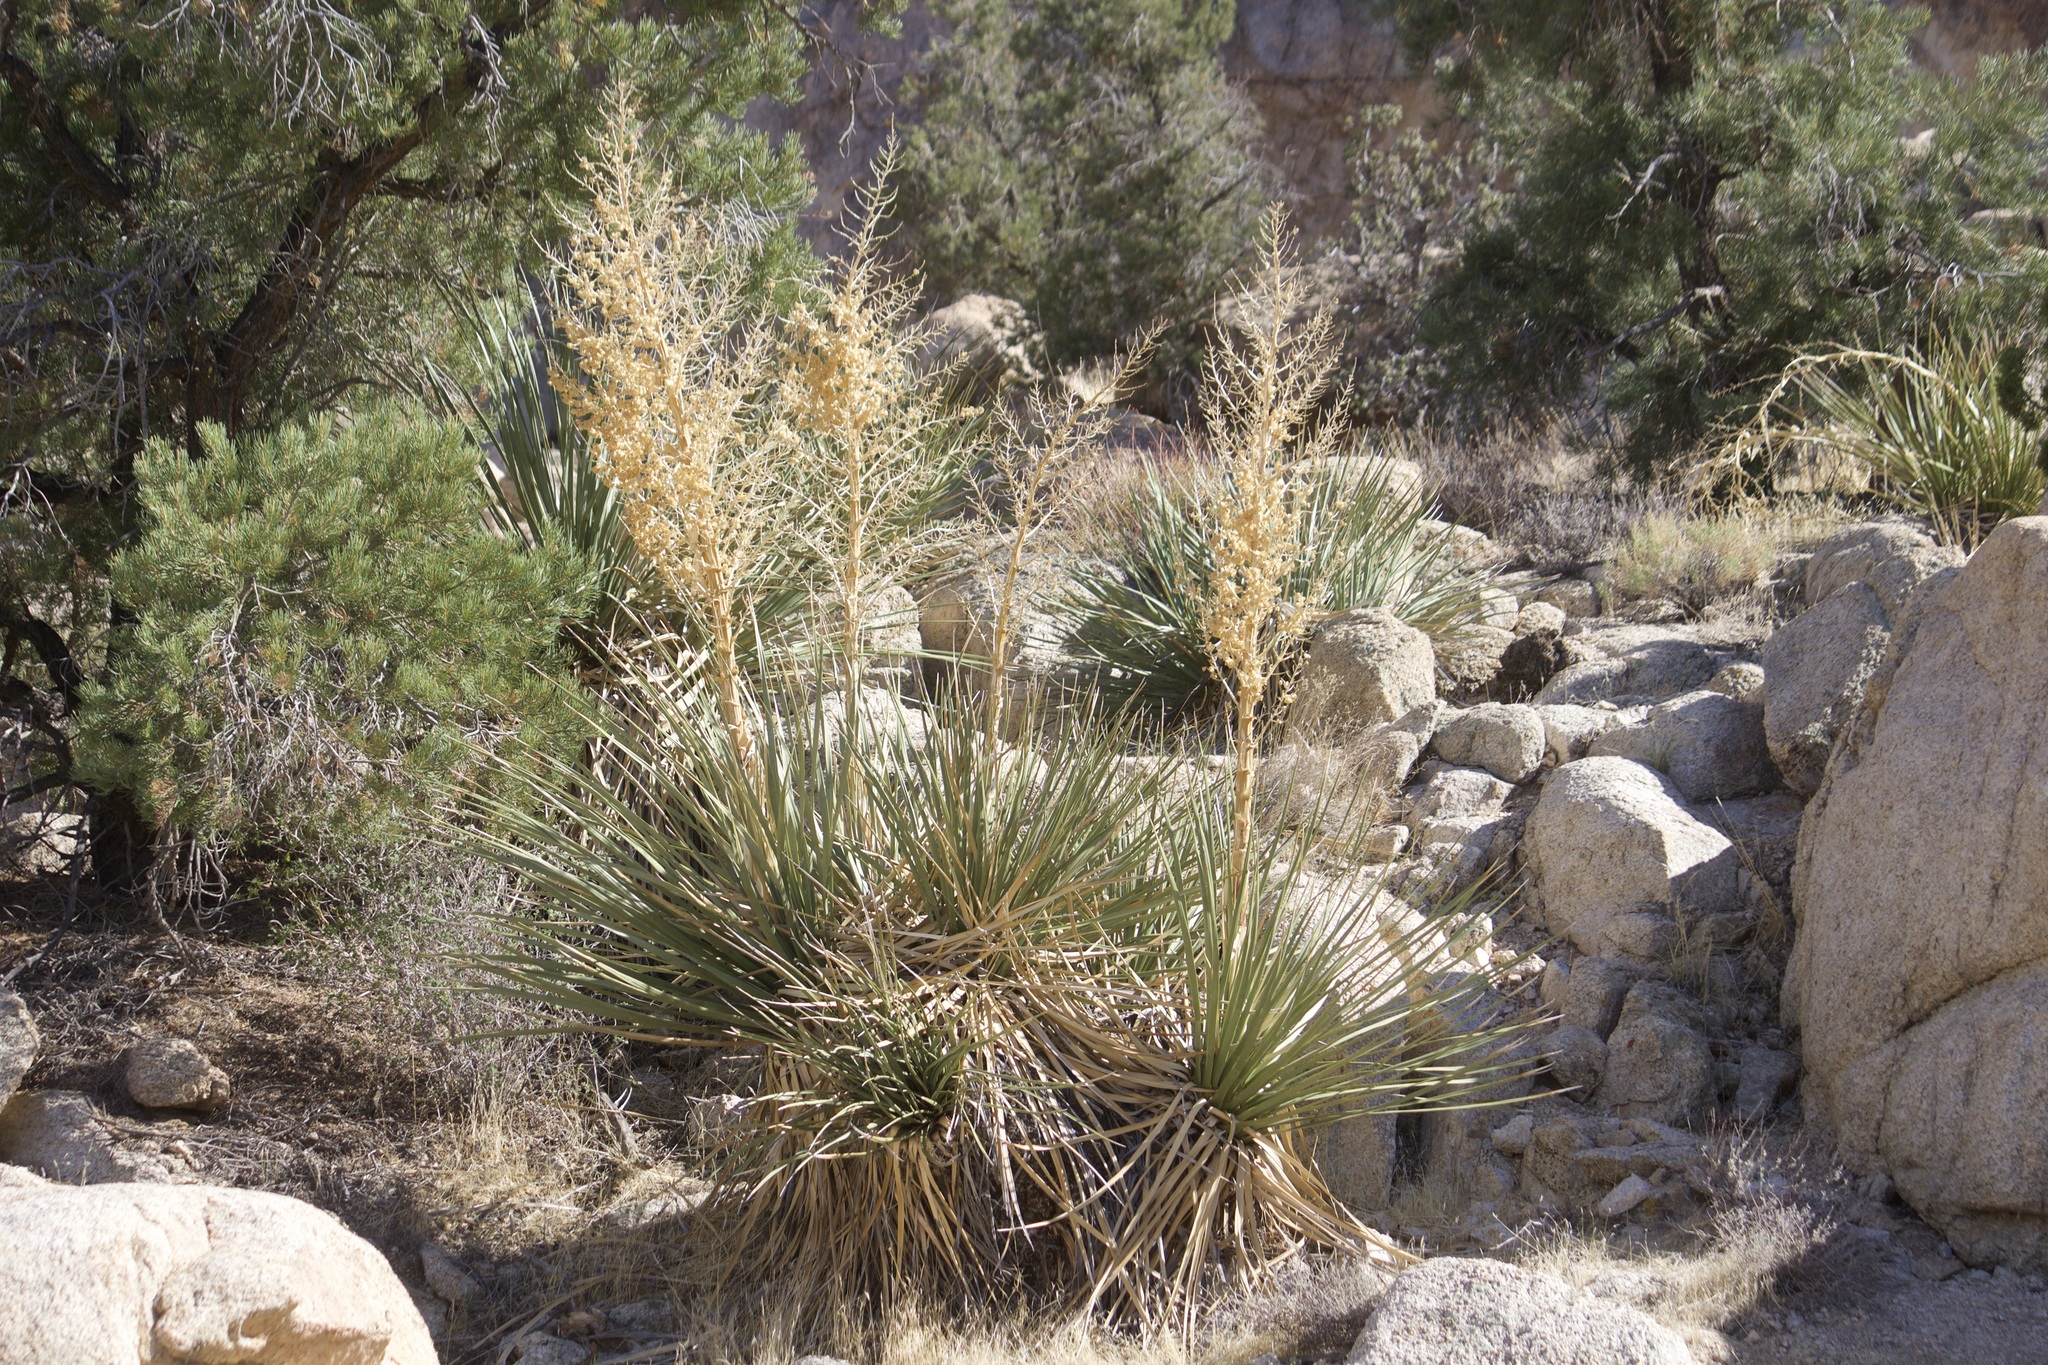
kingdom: Plantae
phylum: Tracheophyta
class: Liliopsida
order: Asparagales
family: Asparagaceae
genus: Nolina
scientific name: Nolina parryi
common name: Parry nolina
